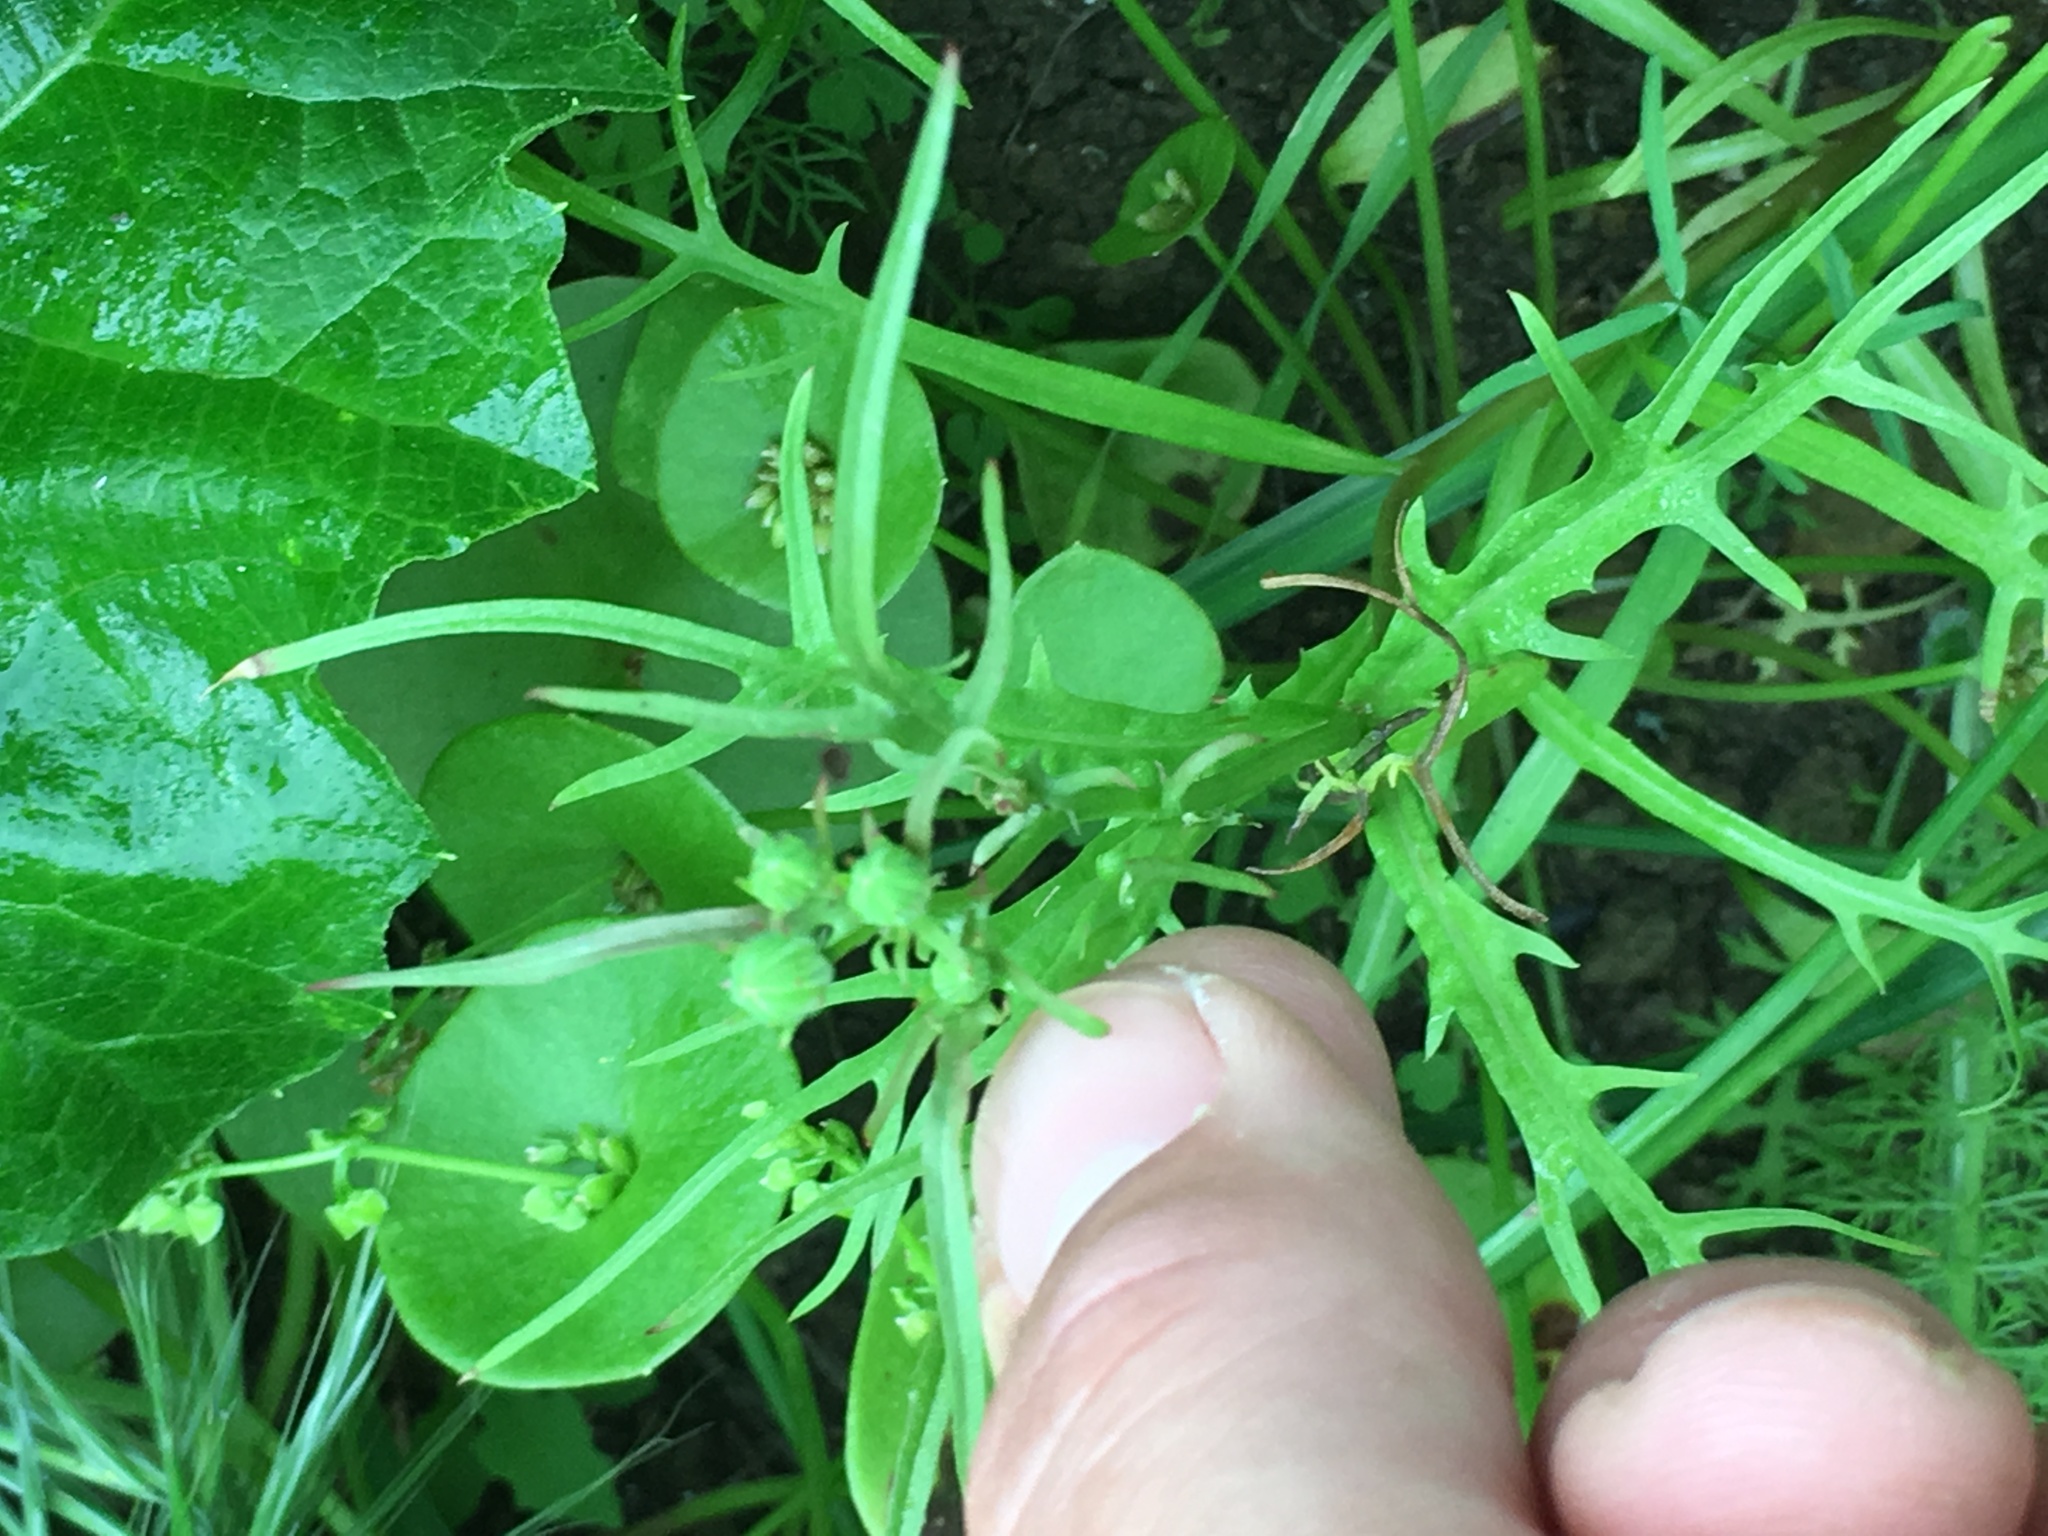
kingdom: Plantae
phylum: Tracheophyta
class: Magnoliopsida
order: Asterales
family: Asteraceae
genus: Malacothrix
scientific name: Malacothrix foliosa
